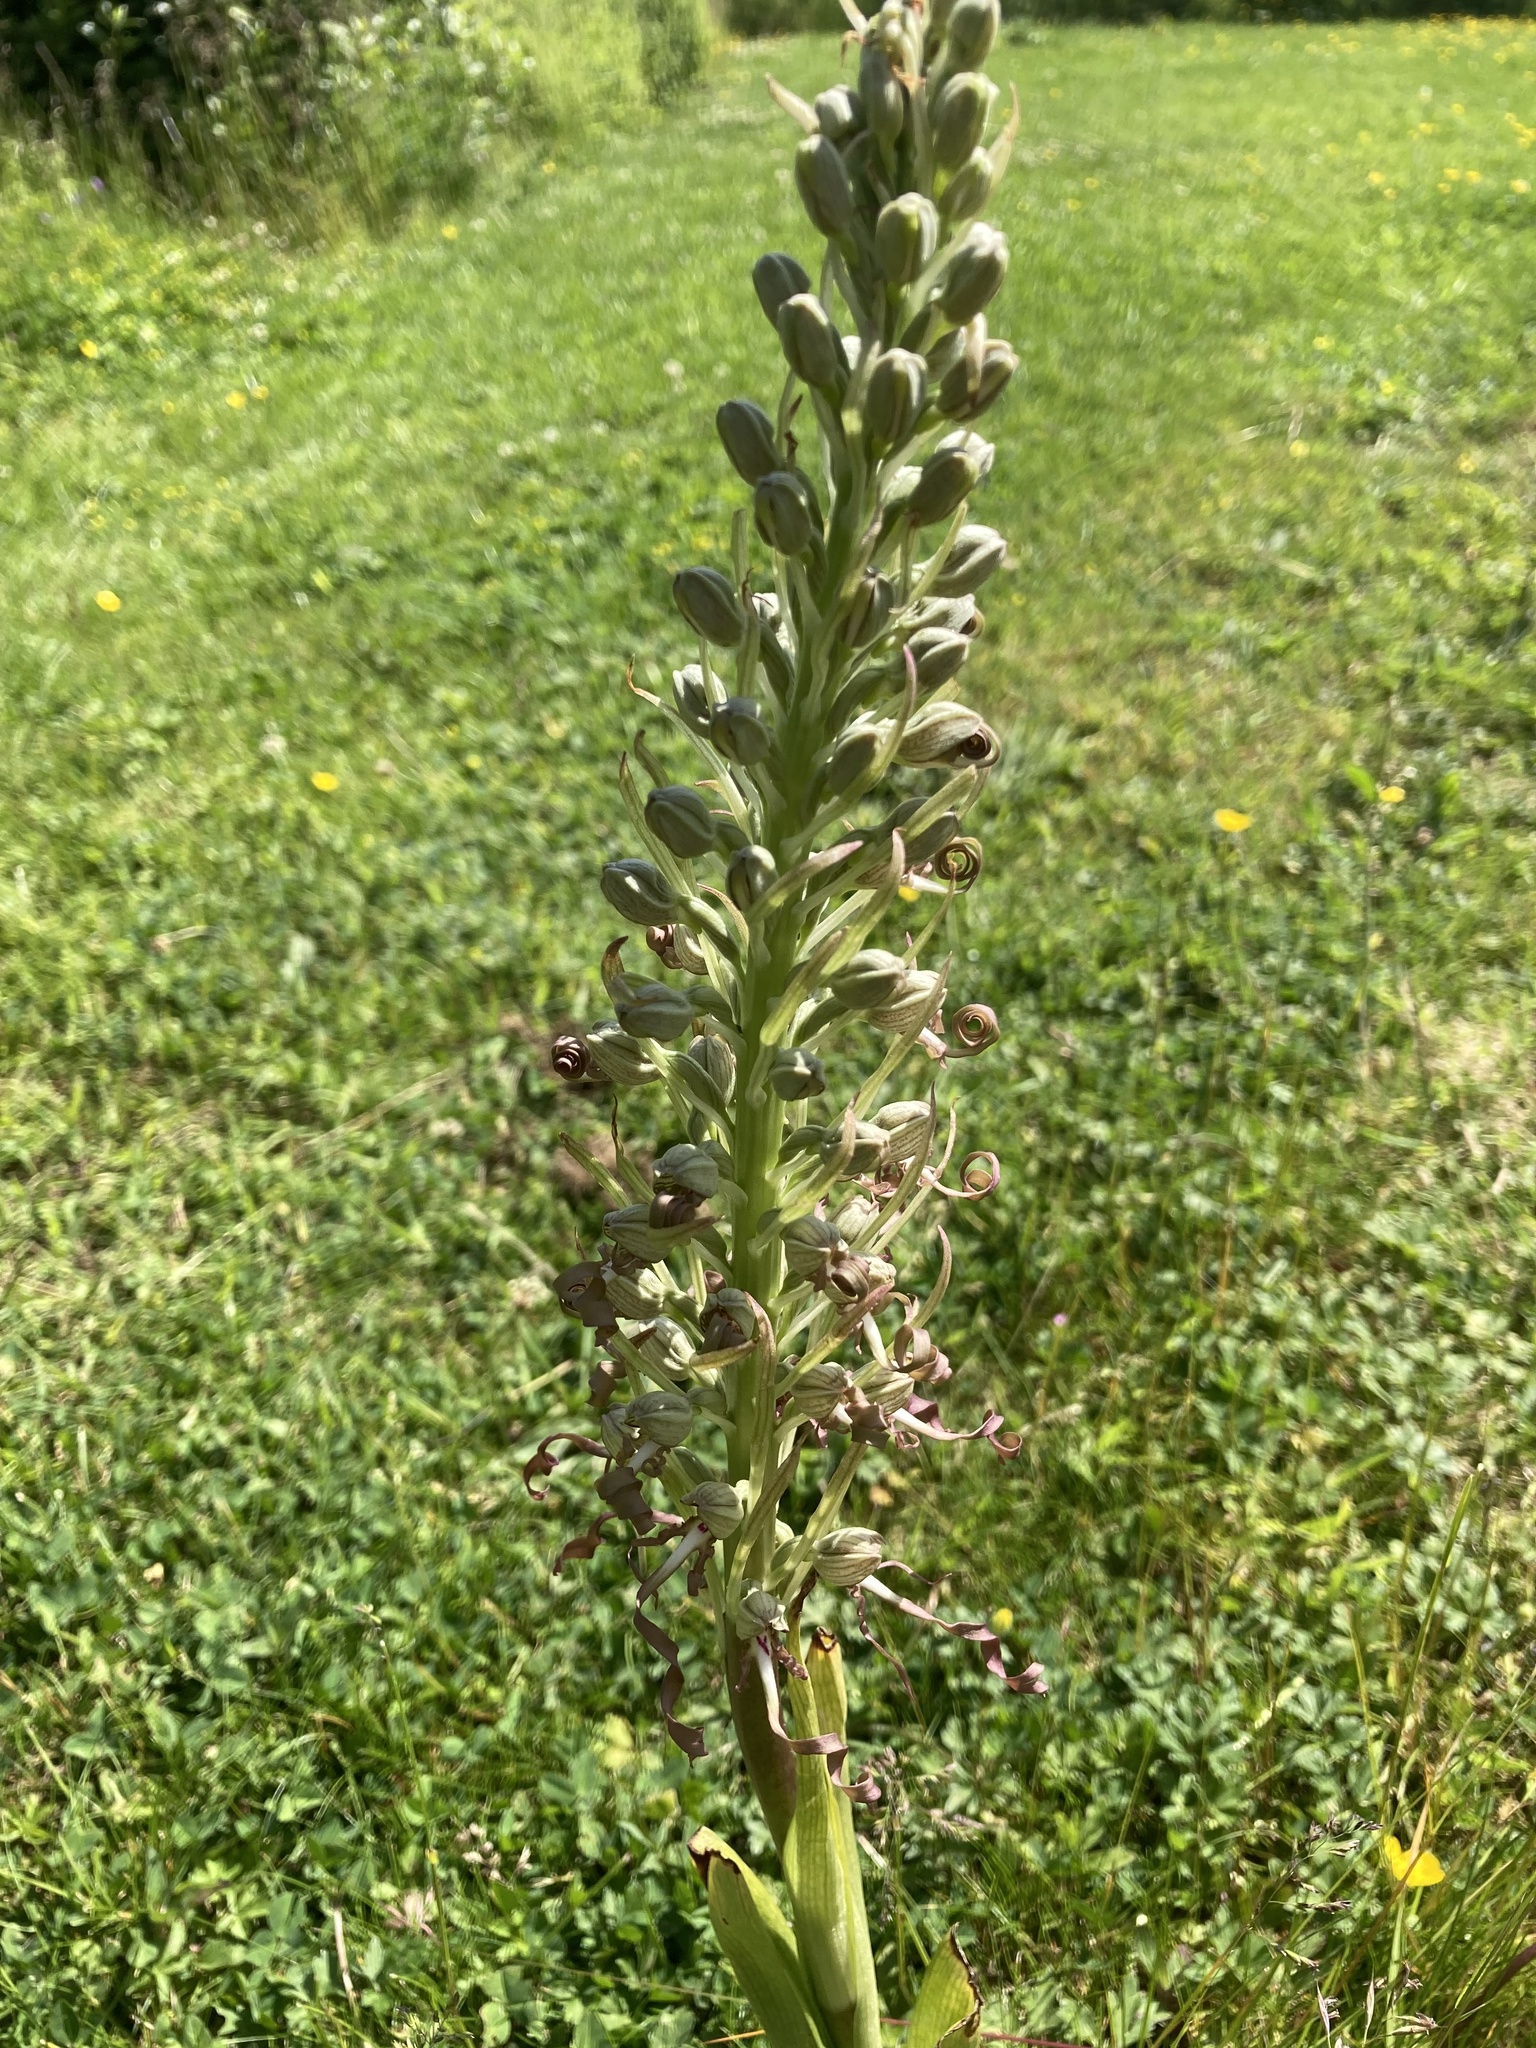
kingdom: Plantae
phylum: Tracheophyta
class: Liliopsida
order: Asparagales
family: Orchidaceae
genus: Himantoglossum
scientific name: Himantoglossum hircinum
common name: Lizard orchid
